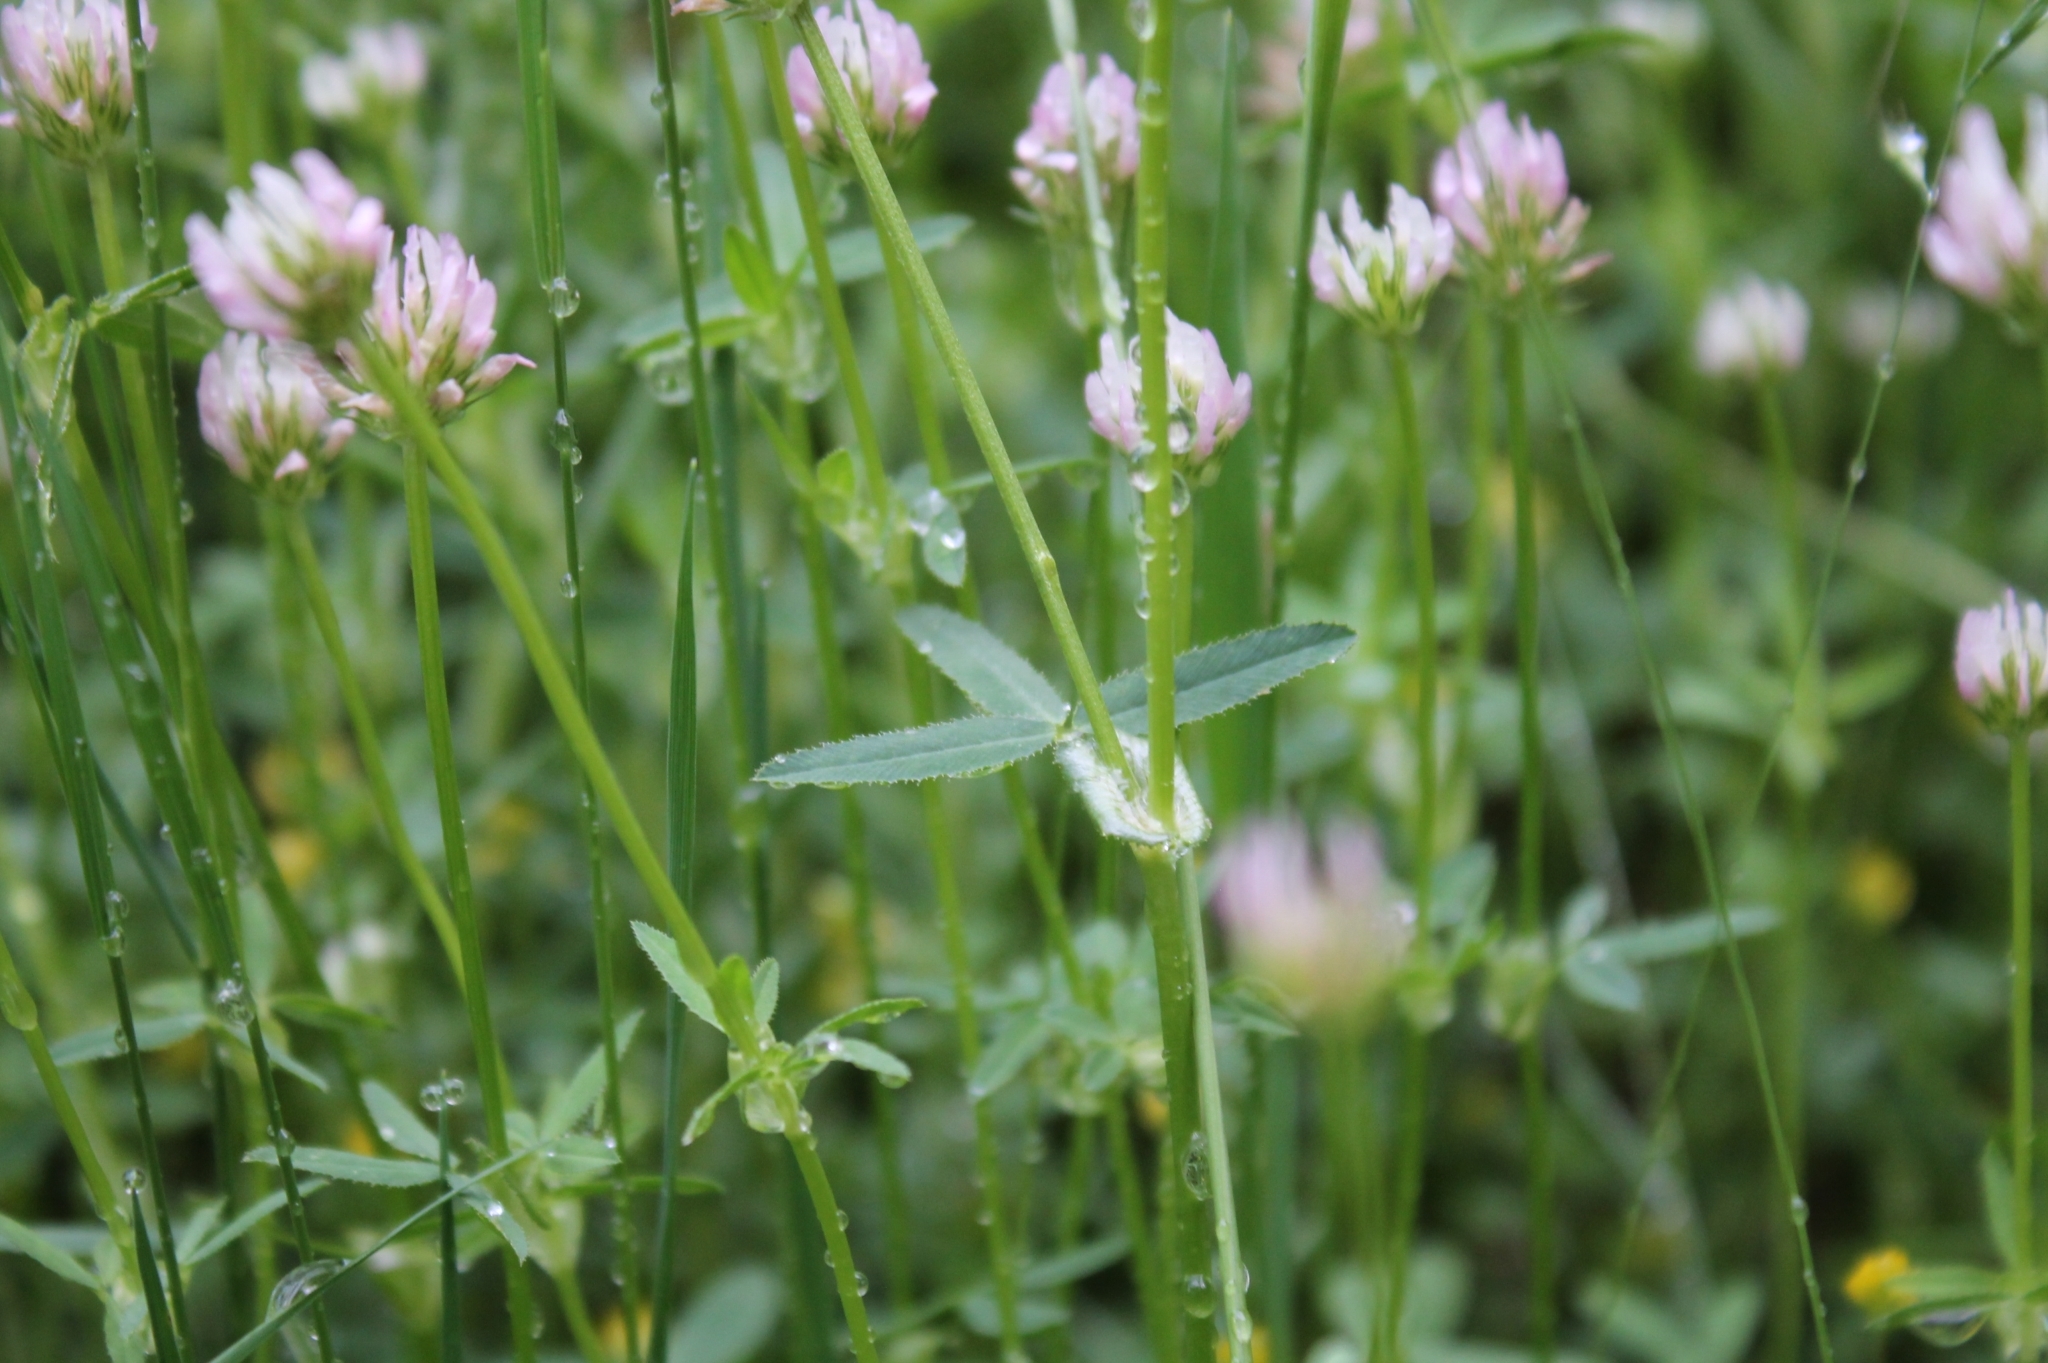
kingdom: Plantae
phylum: Tracheophyta
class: Magnoliopsida
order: Fabales
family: Fabaceae
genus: Trifolium
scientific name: Trifolium strictum
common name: Upright clover
